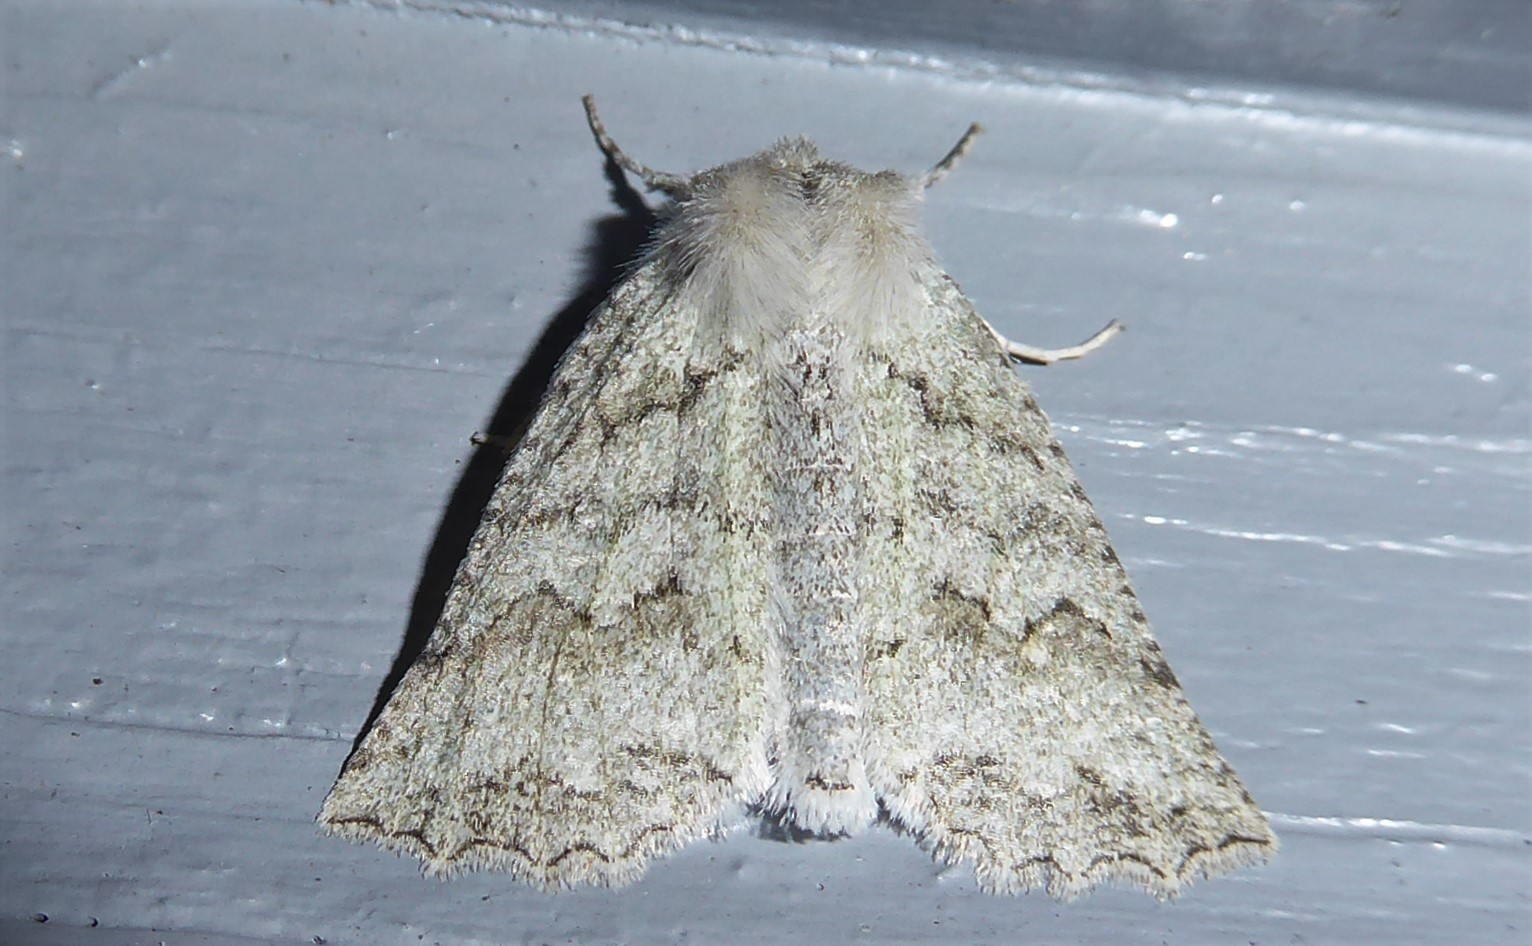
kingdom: Animalia
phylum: Arthropoda
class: Insecta
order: Lepidoptera
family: Geometridae
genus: Declana
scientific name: Declana niveata
